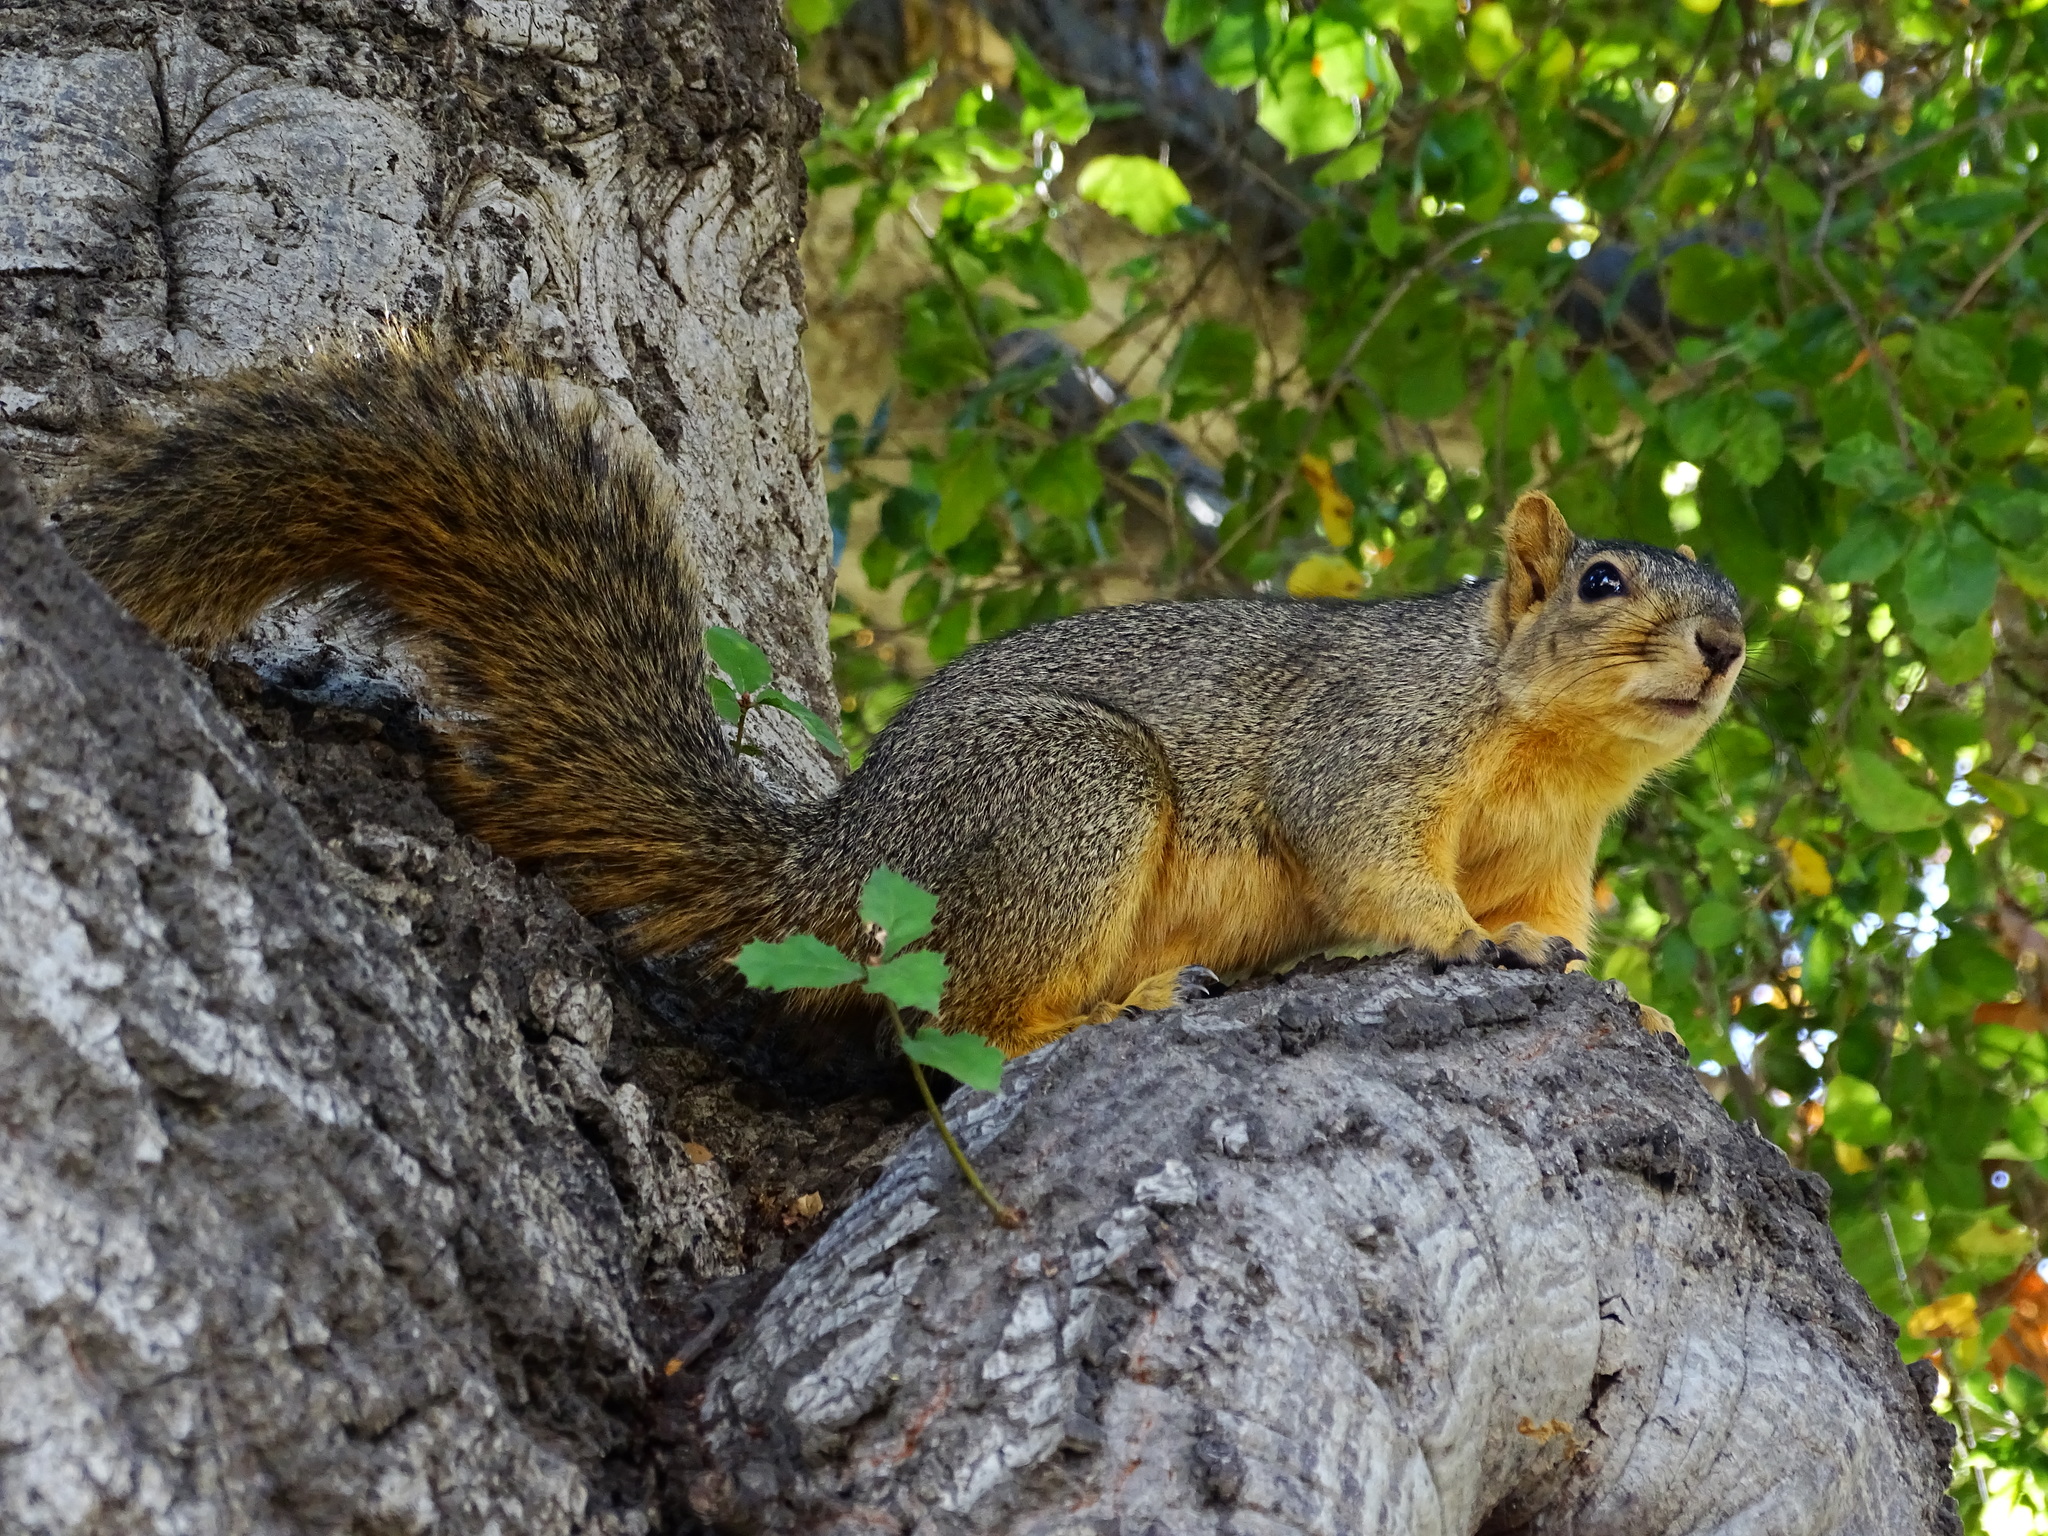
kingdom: Animalia
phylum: Chordata
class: Mammalia
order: Rodentia
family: Sciuridae
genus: Sciurus
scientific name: Sciurus niger
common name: Fox squirrel
